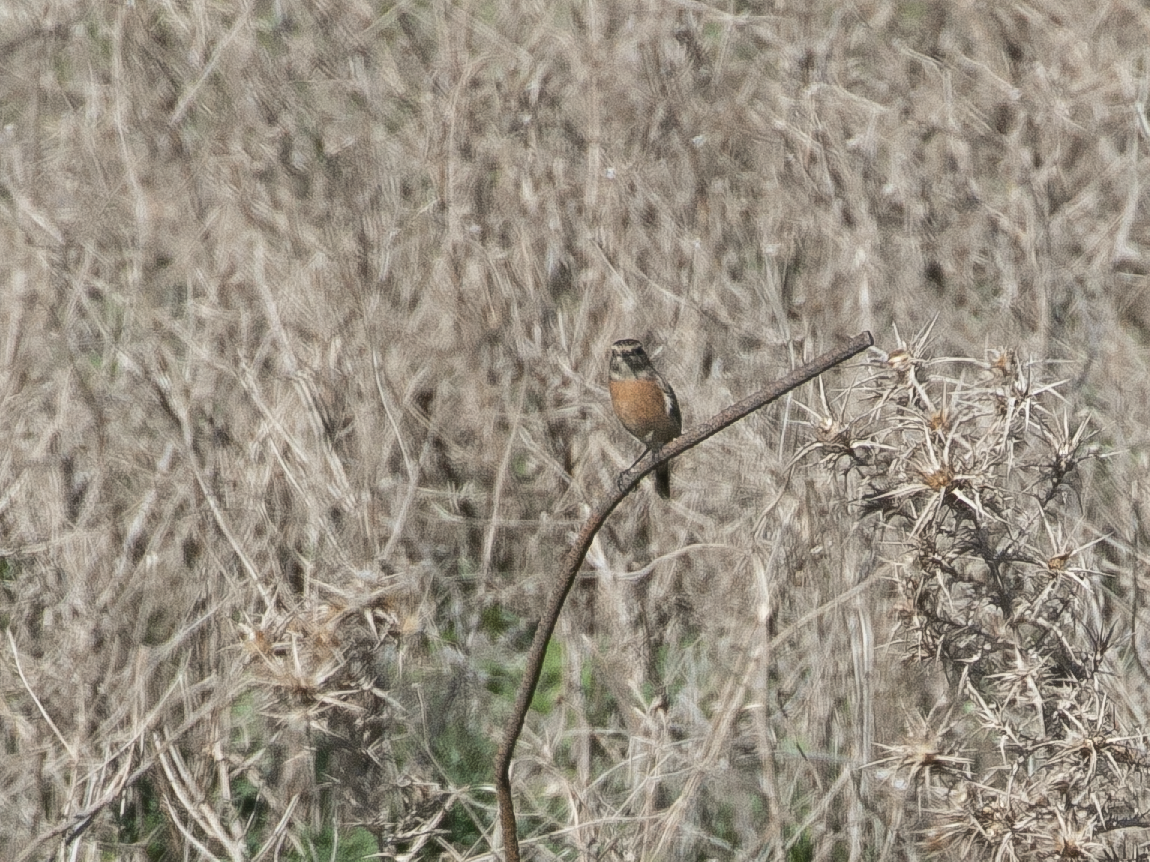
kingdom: Animalia
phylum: Chordata
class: Aves
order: Passeriformes
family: Muscicapidae
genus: Saxicola
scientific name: Saxicola rubicola
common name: European stonechat
